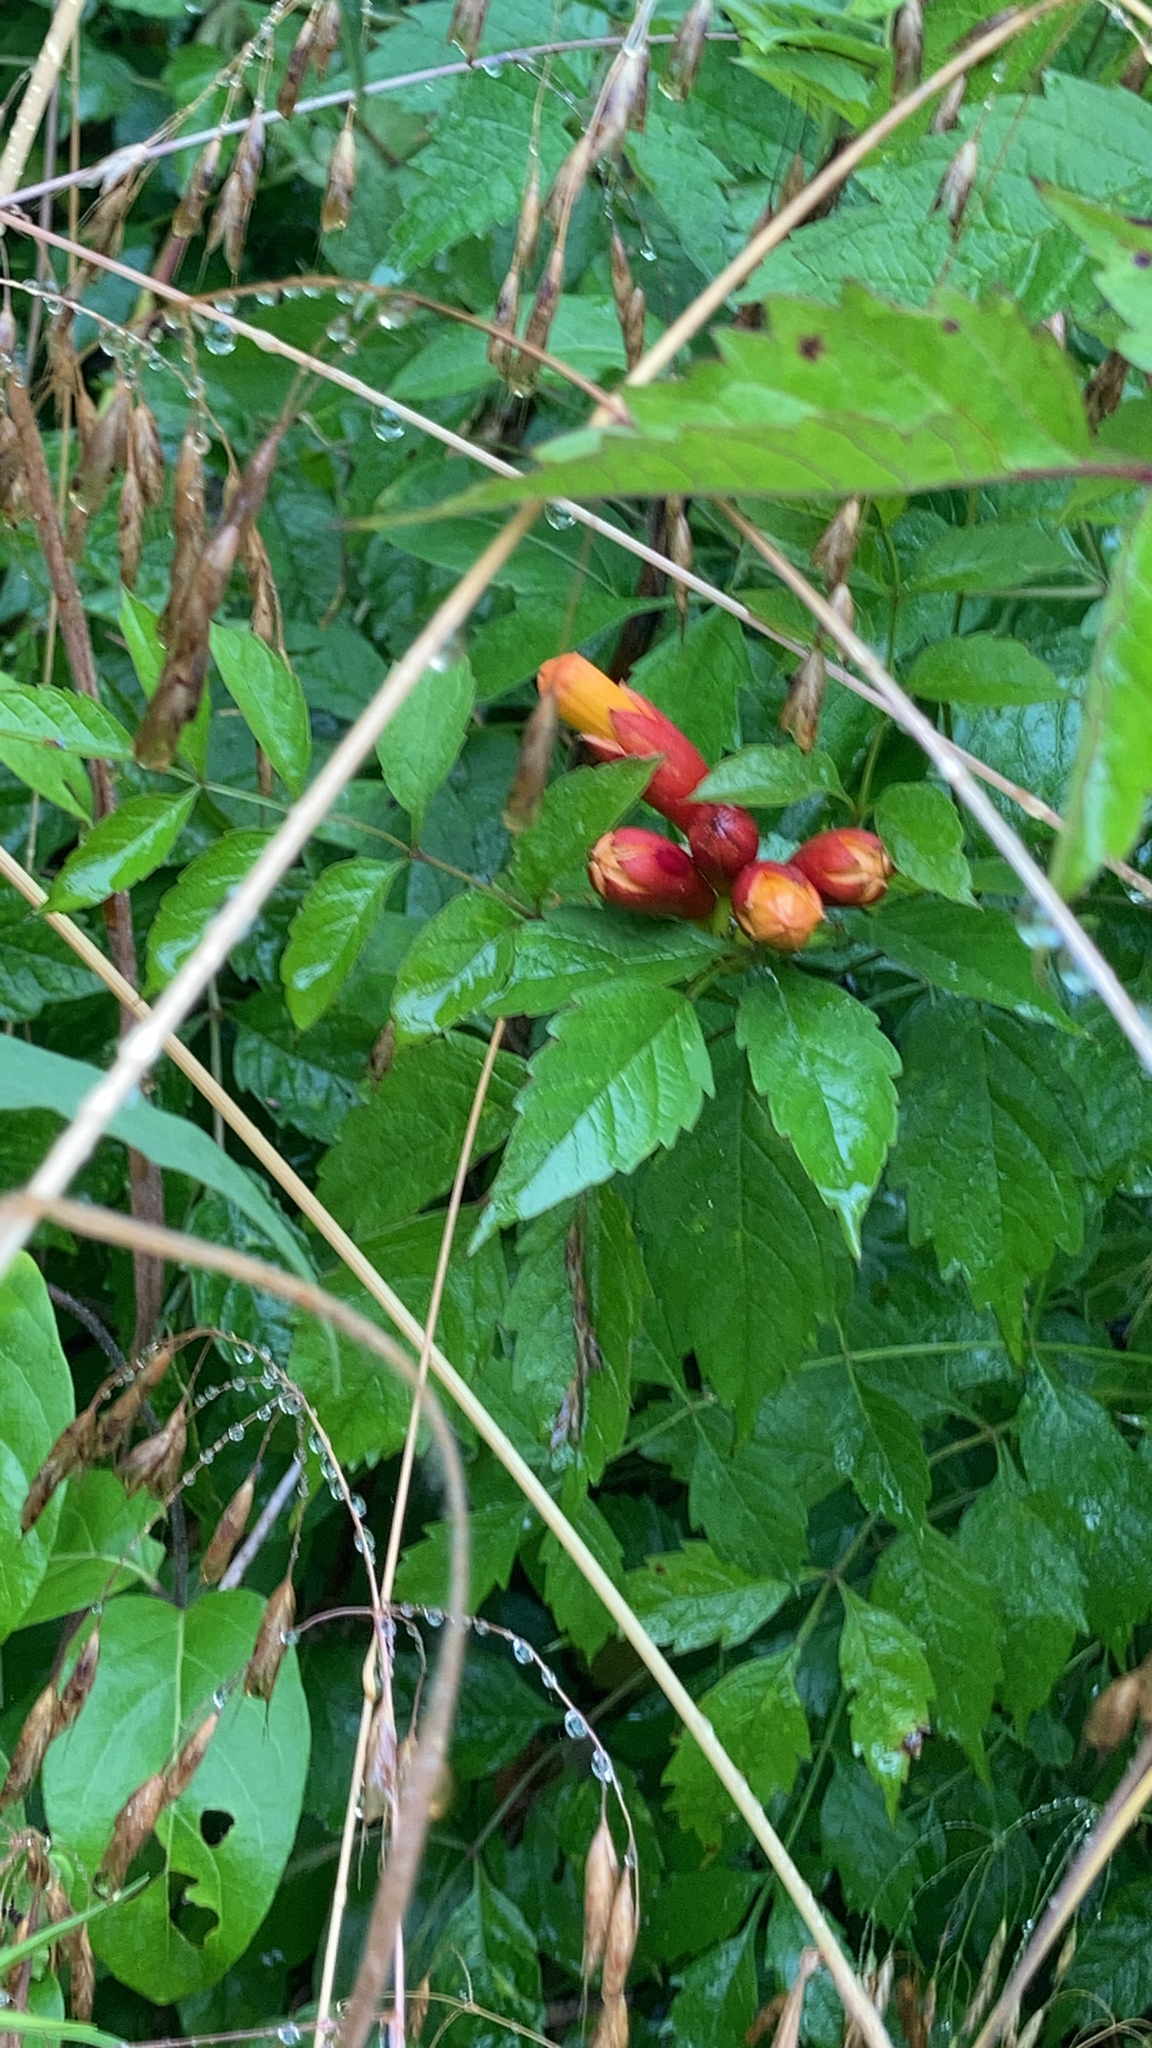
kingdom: Plantae
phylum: Tracheophyta
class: Magnoliopsida
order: Lamiales
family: Bignoniaceae
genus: Campsis
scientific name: Campsis radicans
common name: Trumpet-creeper
